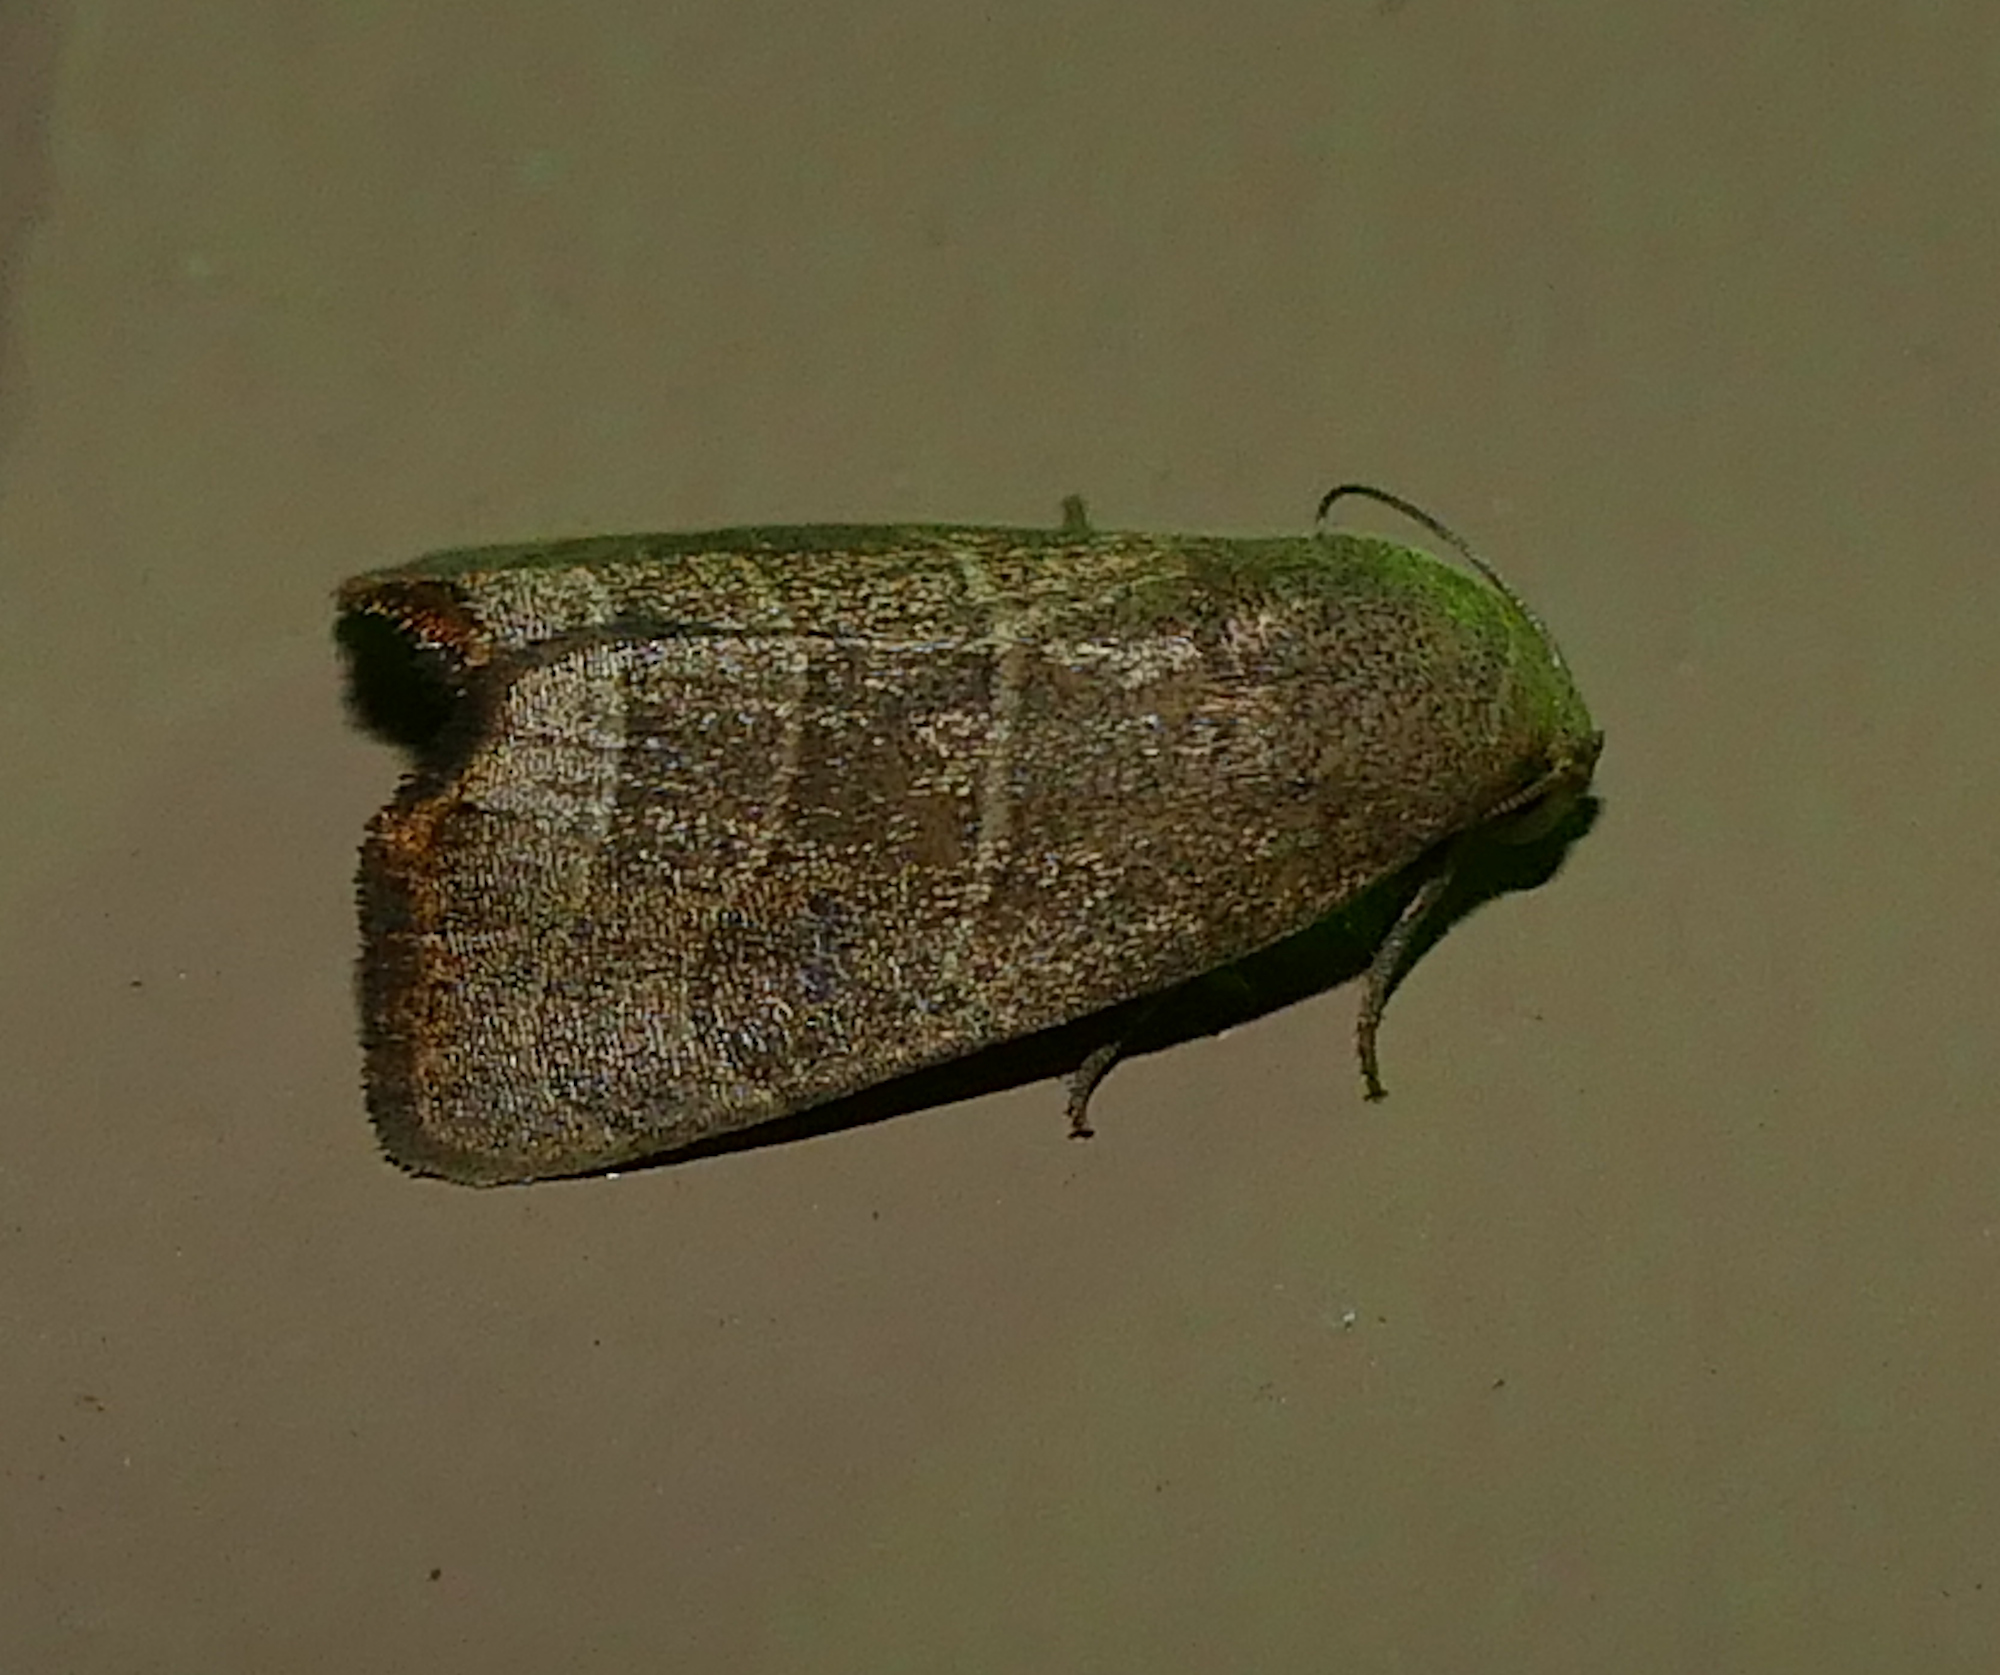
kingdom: Animalia
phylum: Arthropoda
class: Insecta
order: Lepidoptera
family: Noctuidae
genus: Bagisara
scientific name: Bagisara repanda
